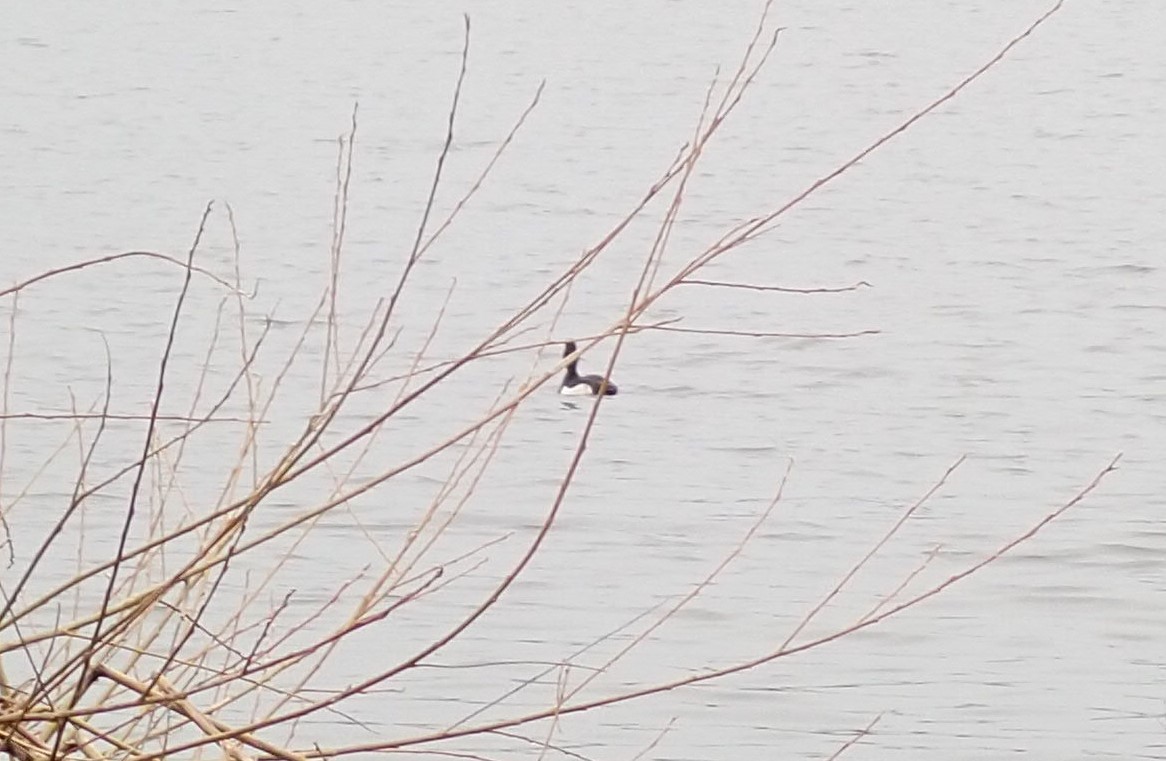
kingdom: Animalia
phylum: Chordata
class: Aves
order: Anseriformes
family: Anatidae
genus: Aythya
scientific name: Aythya fuligula
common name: Tufted duck
